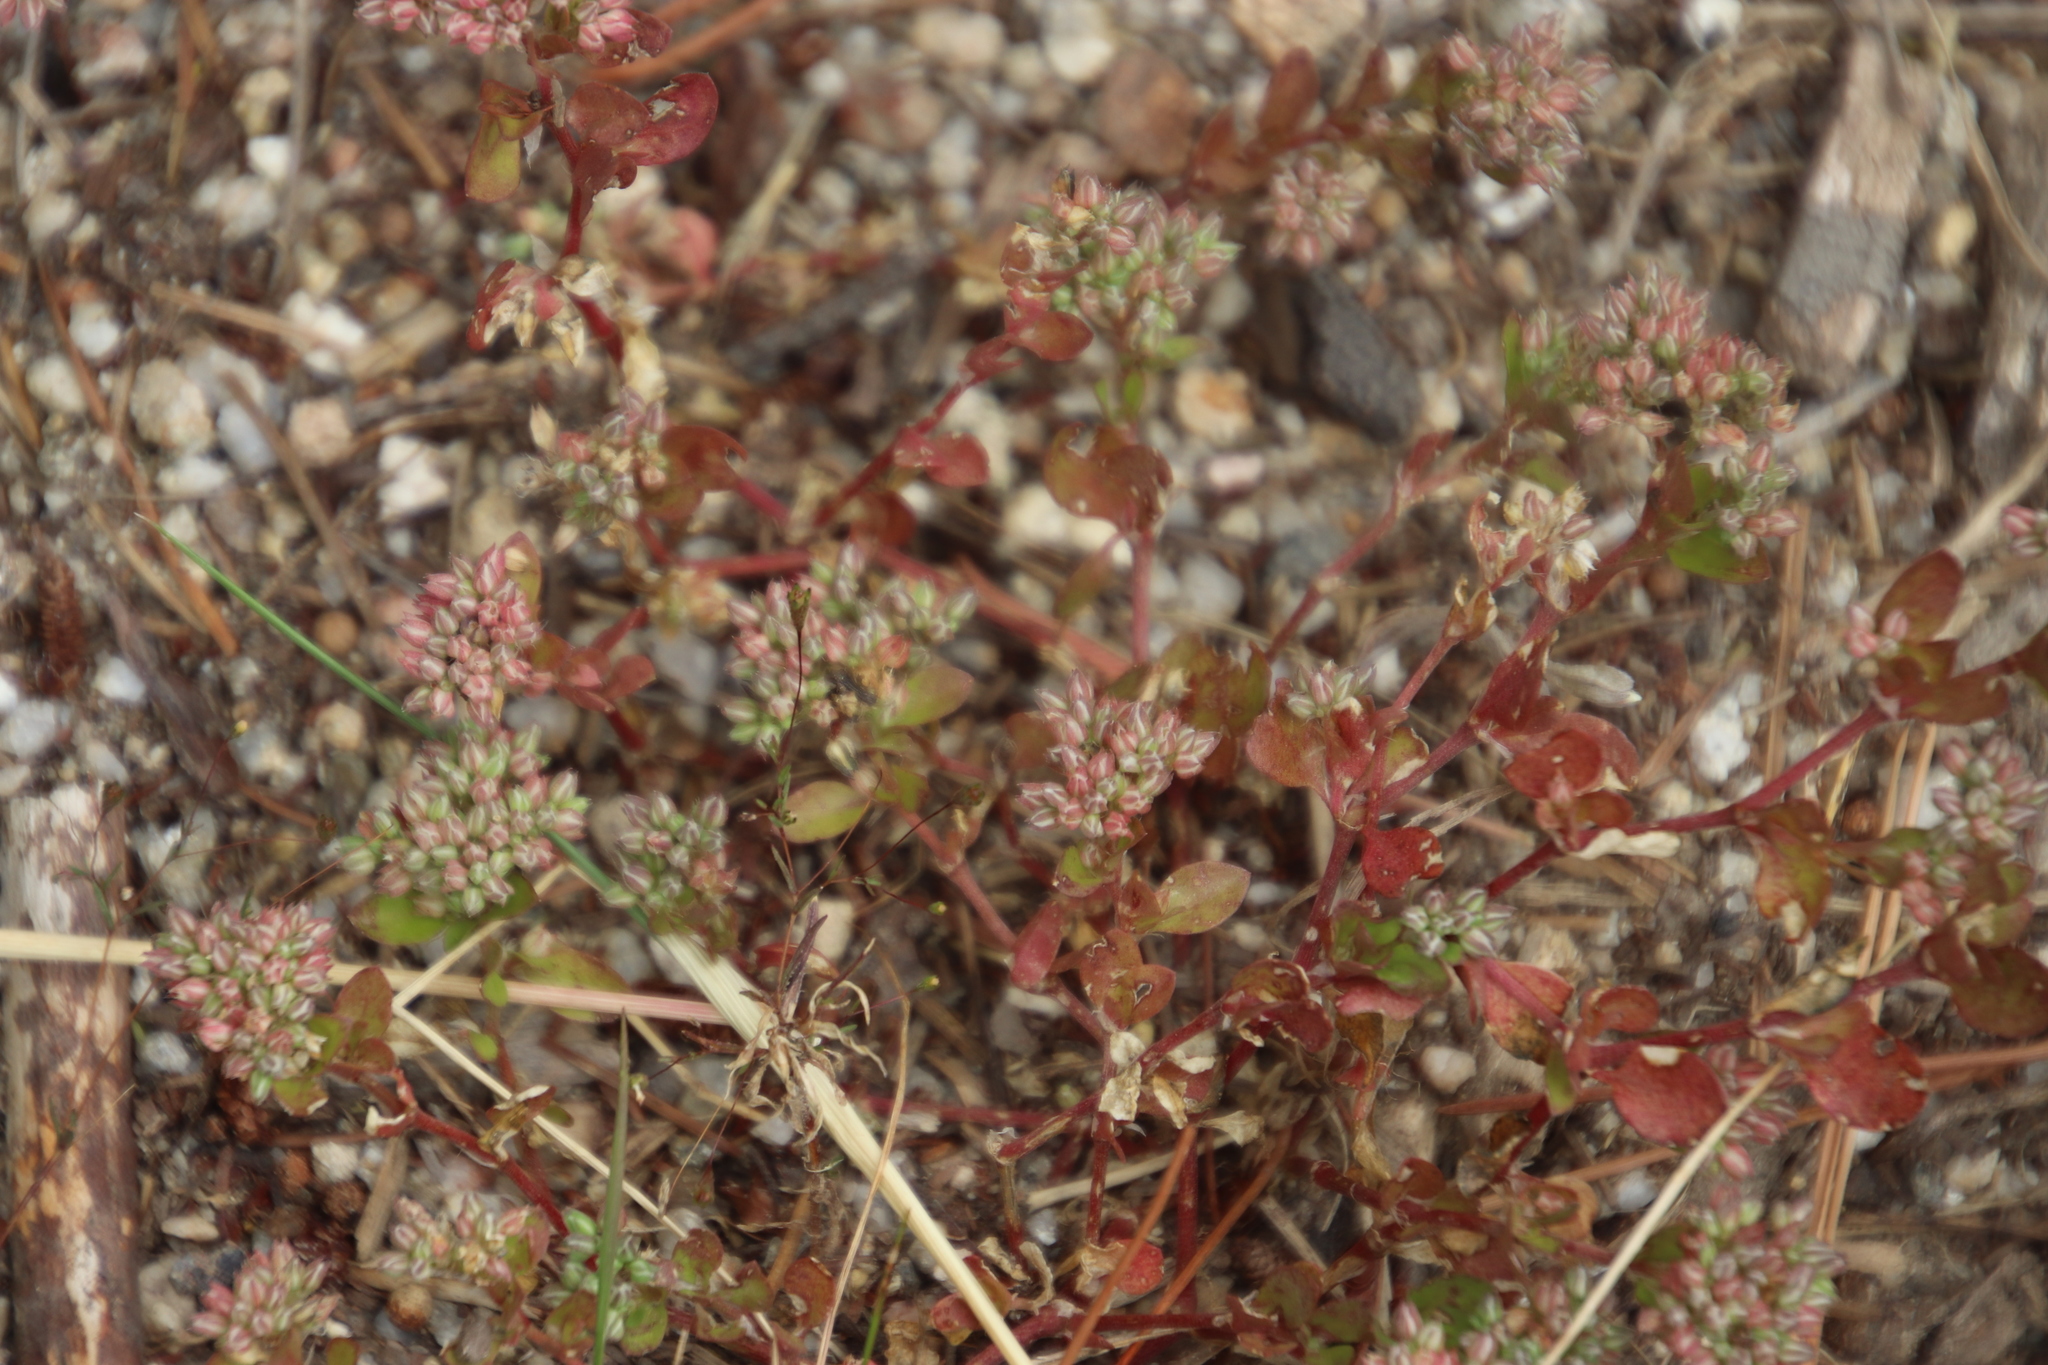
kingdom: Plantae
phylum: Tracheophyta
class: Magnoliopsida
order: Caryophyllales
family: Caryophyllaceae
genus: Polycarpon
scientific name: Polycarpon tetraphyllum
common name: Four-leaved all-seed
